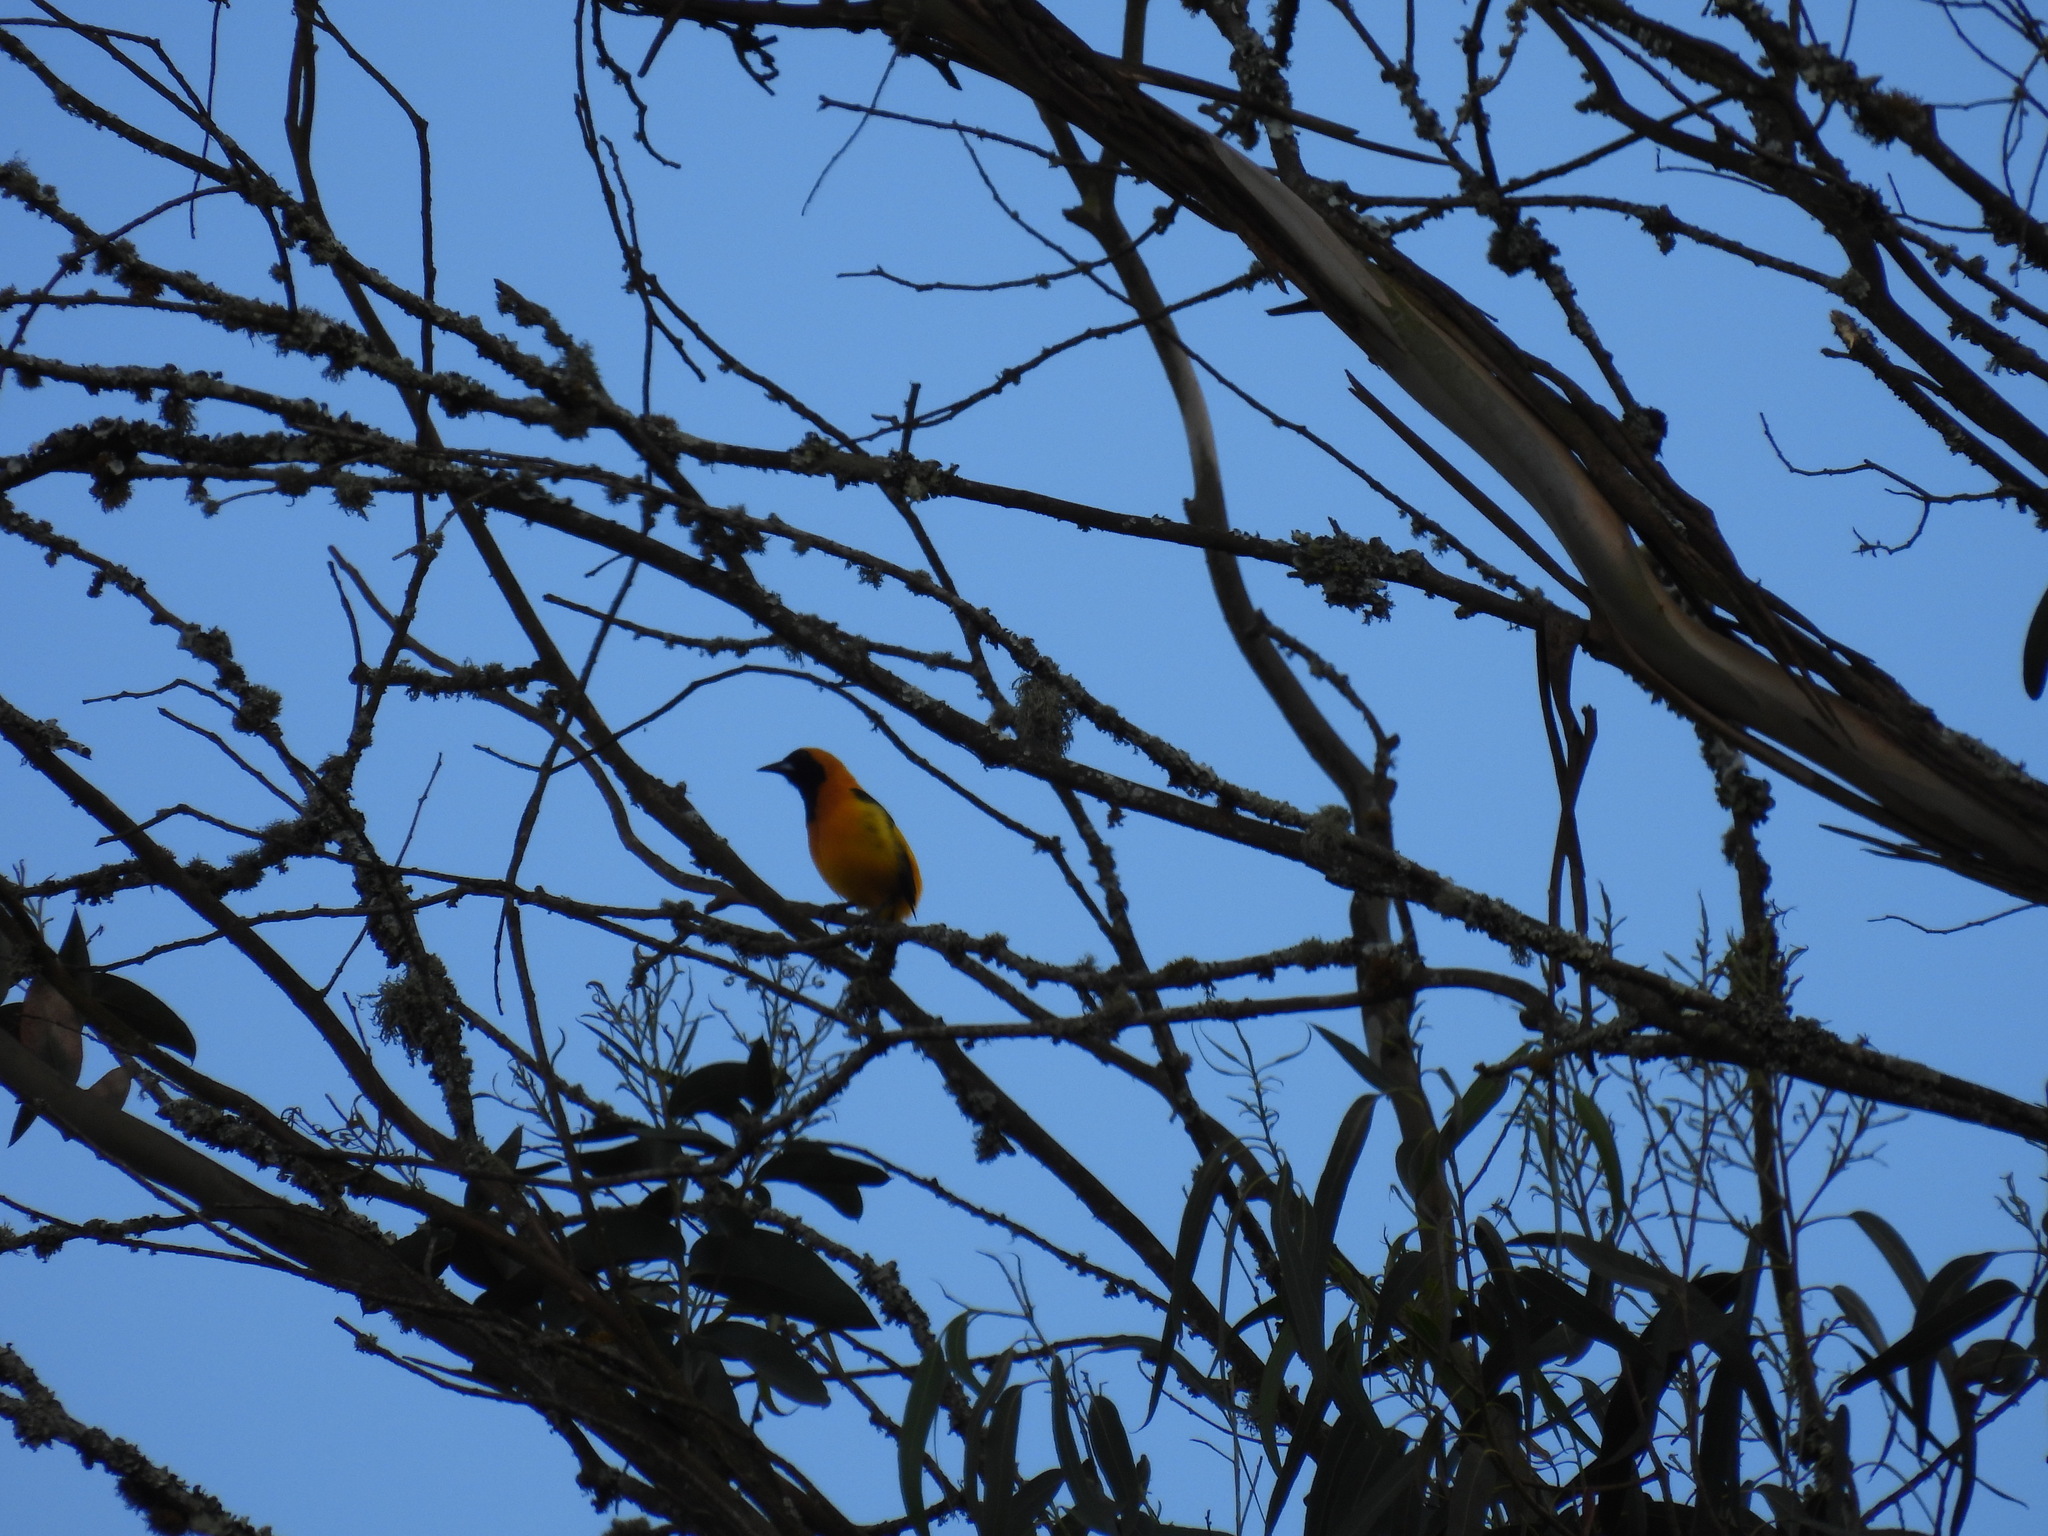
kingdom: Animalia
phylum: Chordata
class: Aves
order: Passeriformes
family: Icteridae
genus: Icterus
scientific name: Icterus chrysater
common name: Yellow-backed oriole
